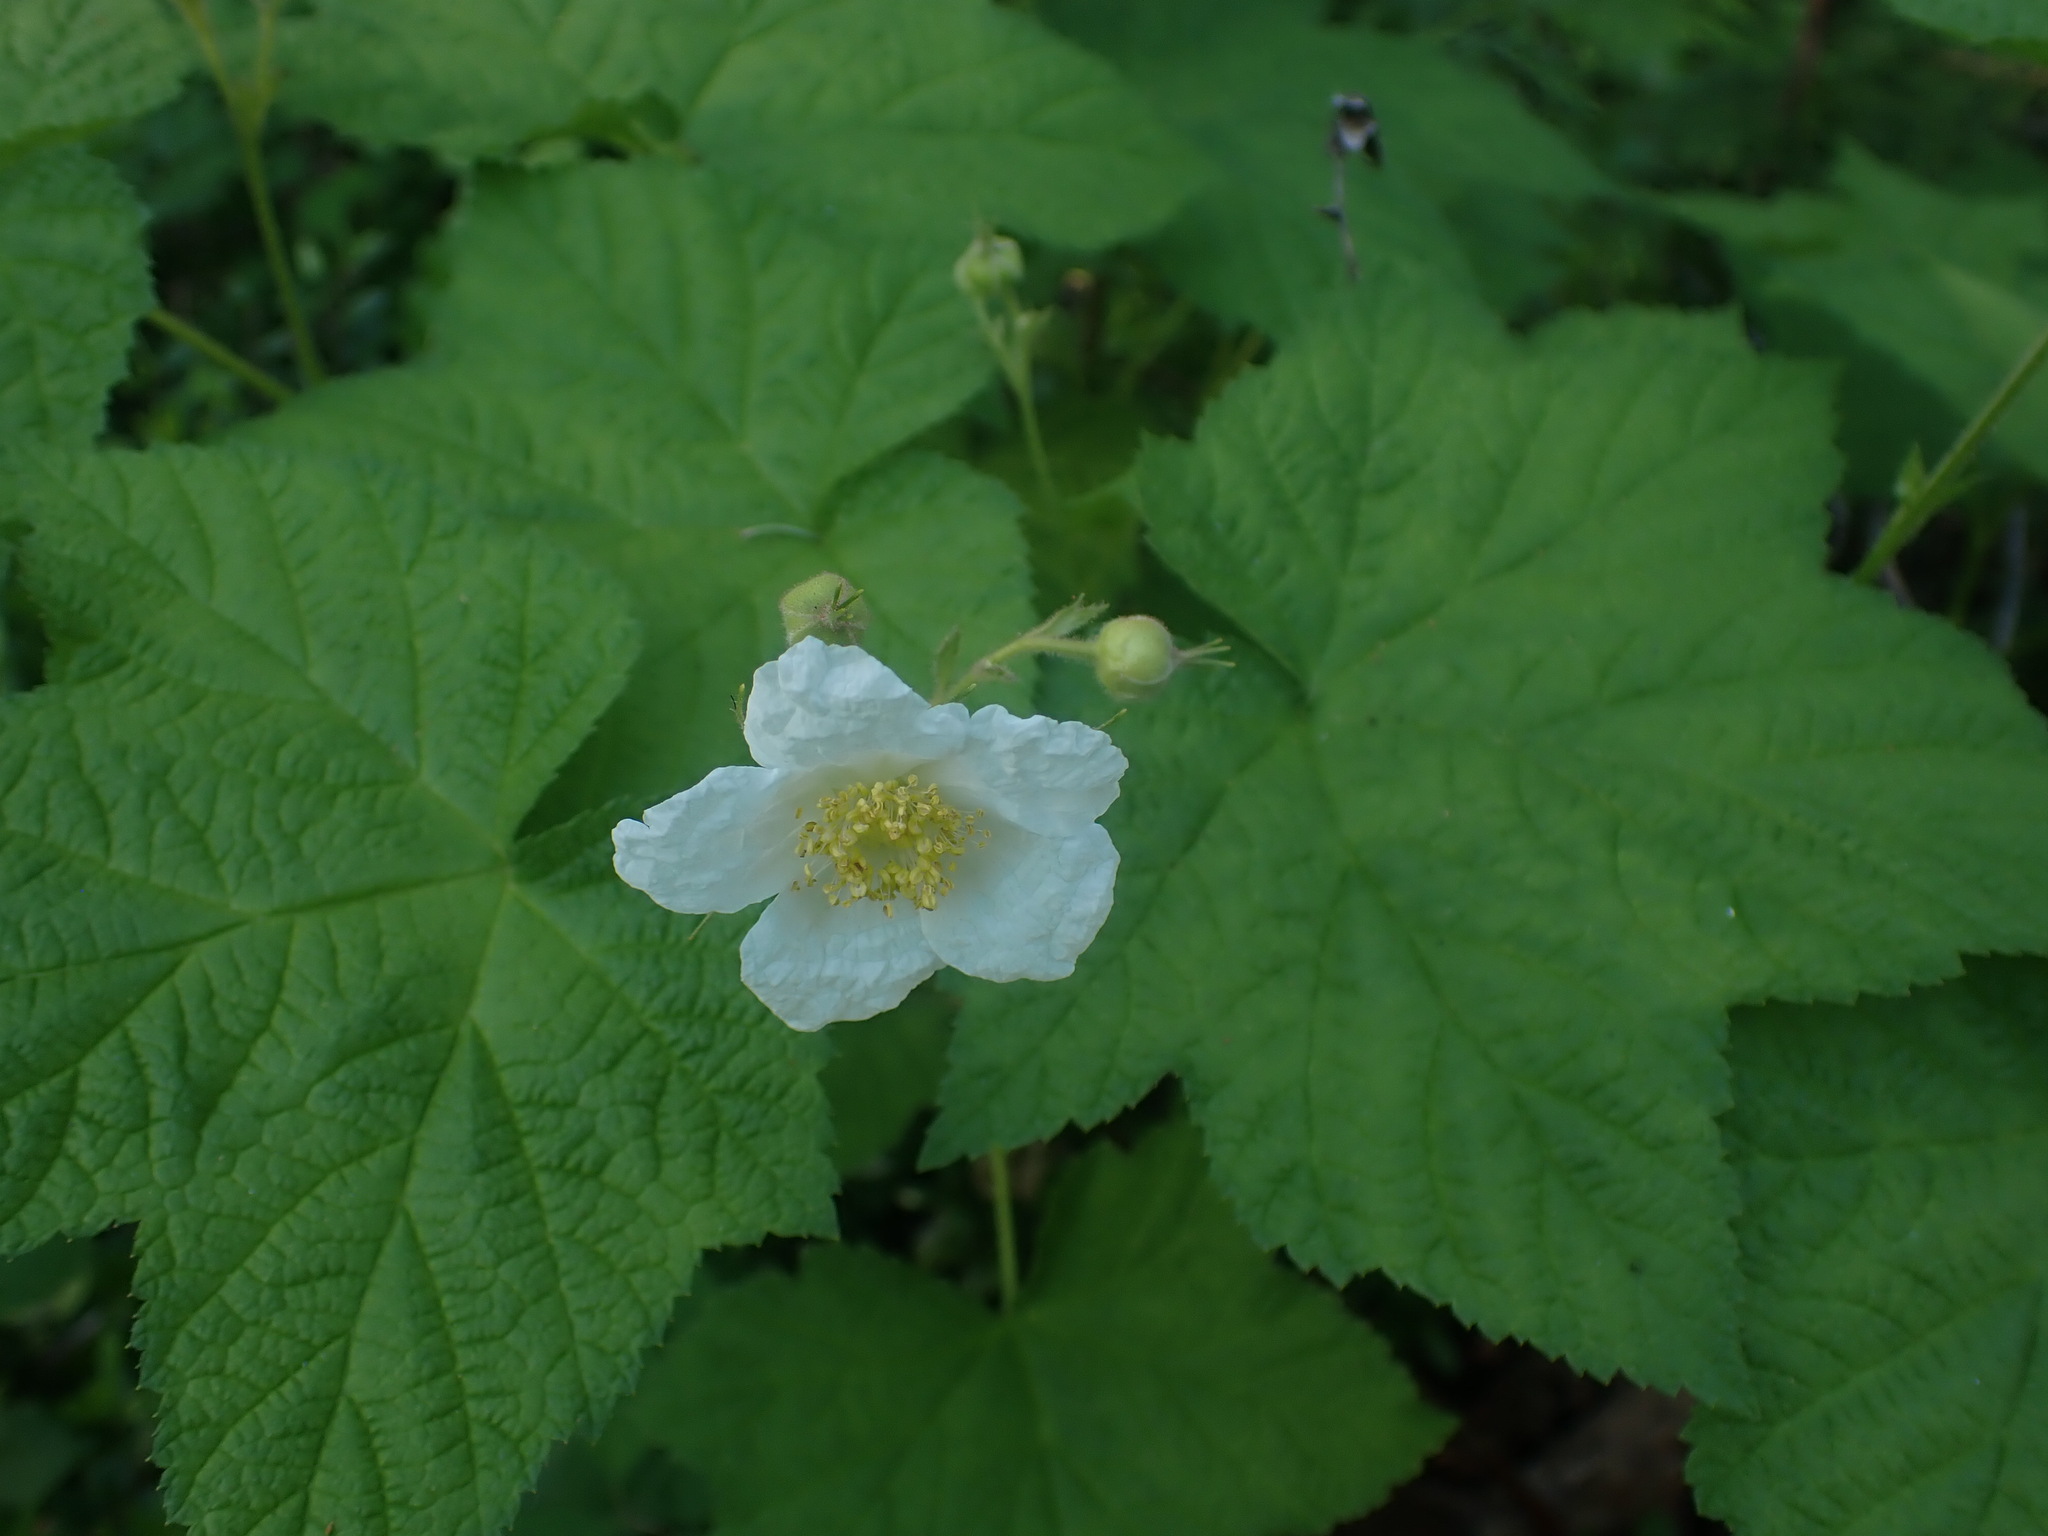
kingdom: Plantae
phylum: Tracheophyta
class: Magnoliopsida
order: Rosales
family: Rosaceae
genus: Rubus
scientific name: Rubus parviflorus
